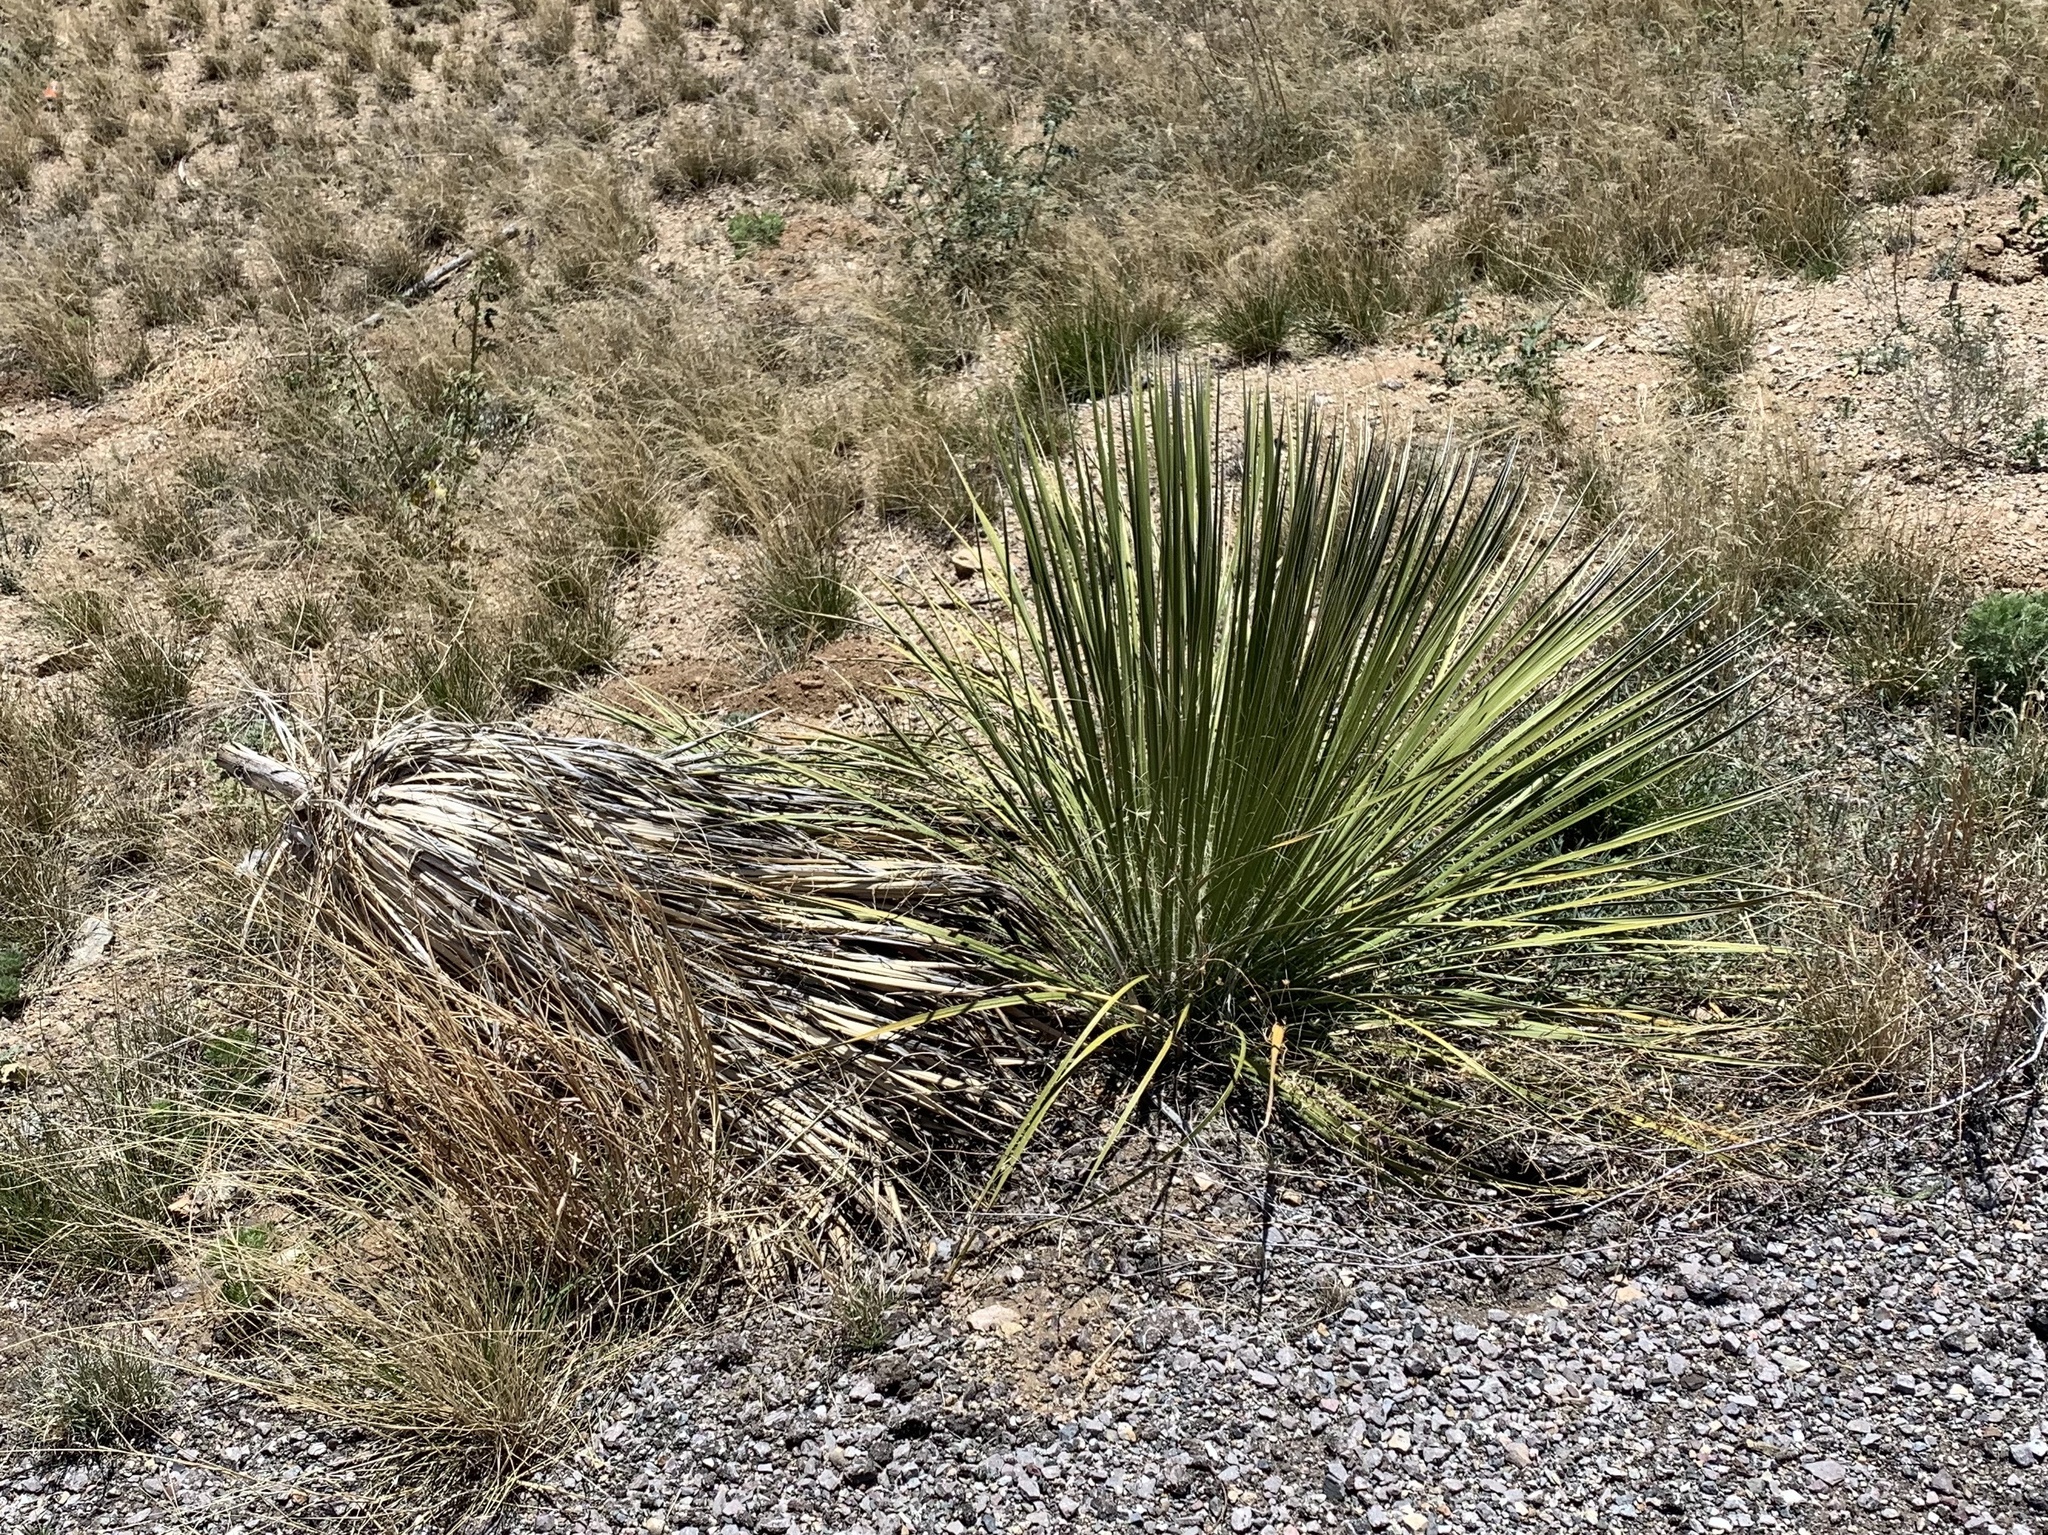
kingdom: Plantae
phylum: Tracheophyta
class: Liliopsida
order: Asparagales
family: Asparagaceae
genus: Yucca
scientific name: Yucca elata
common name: Palmella
